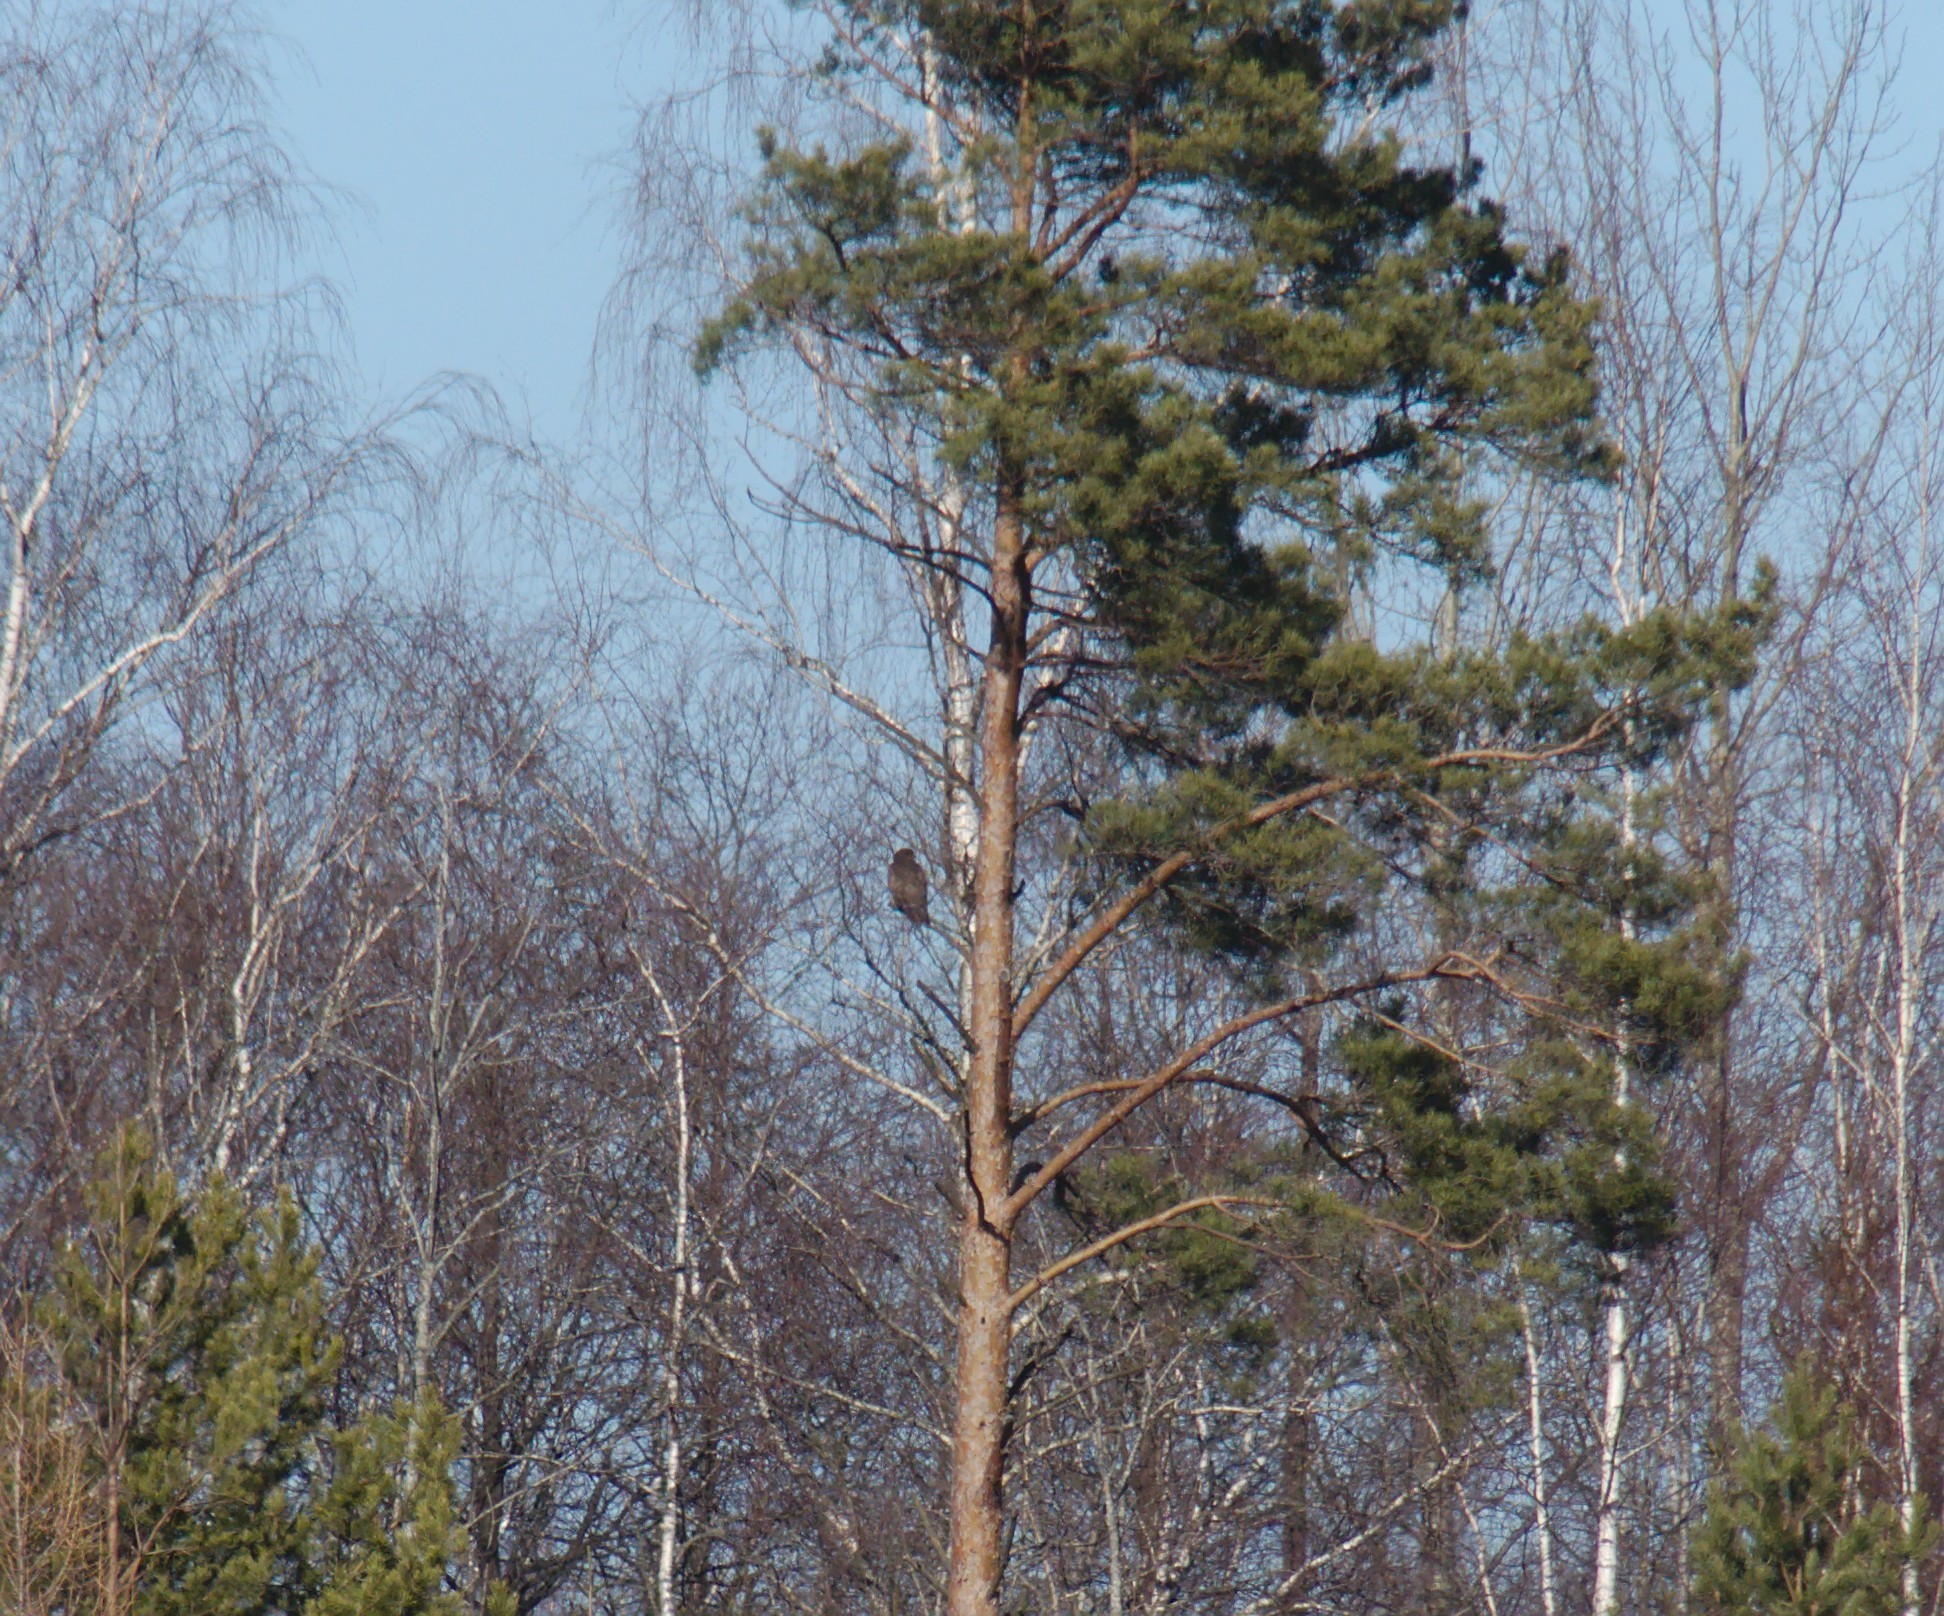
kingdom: Animalia
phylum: Chordata
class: Aves
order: Accipitriformes
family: Accipitridae
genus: Buteo
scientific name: Buteo buteo
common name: Common buzzard
